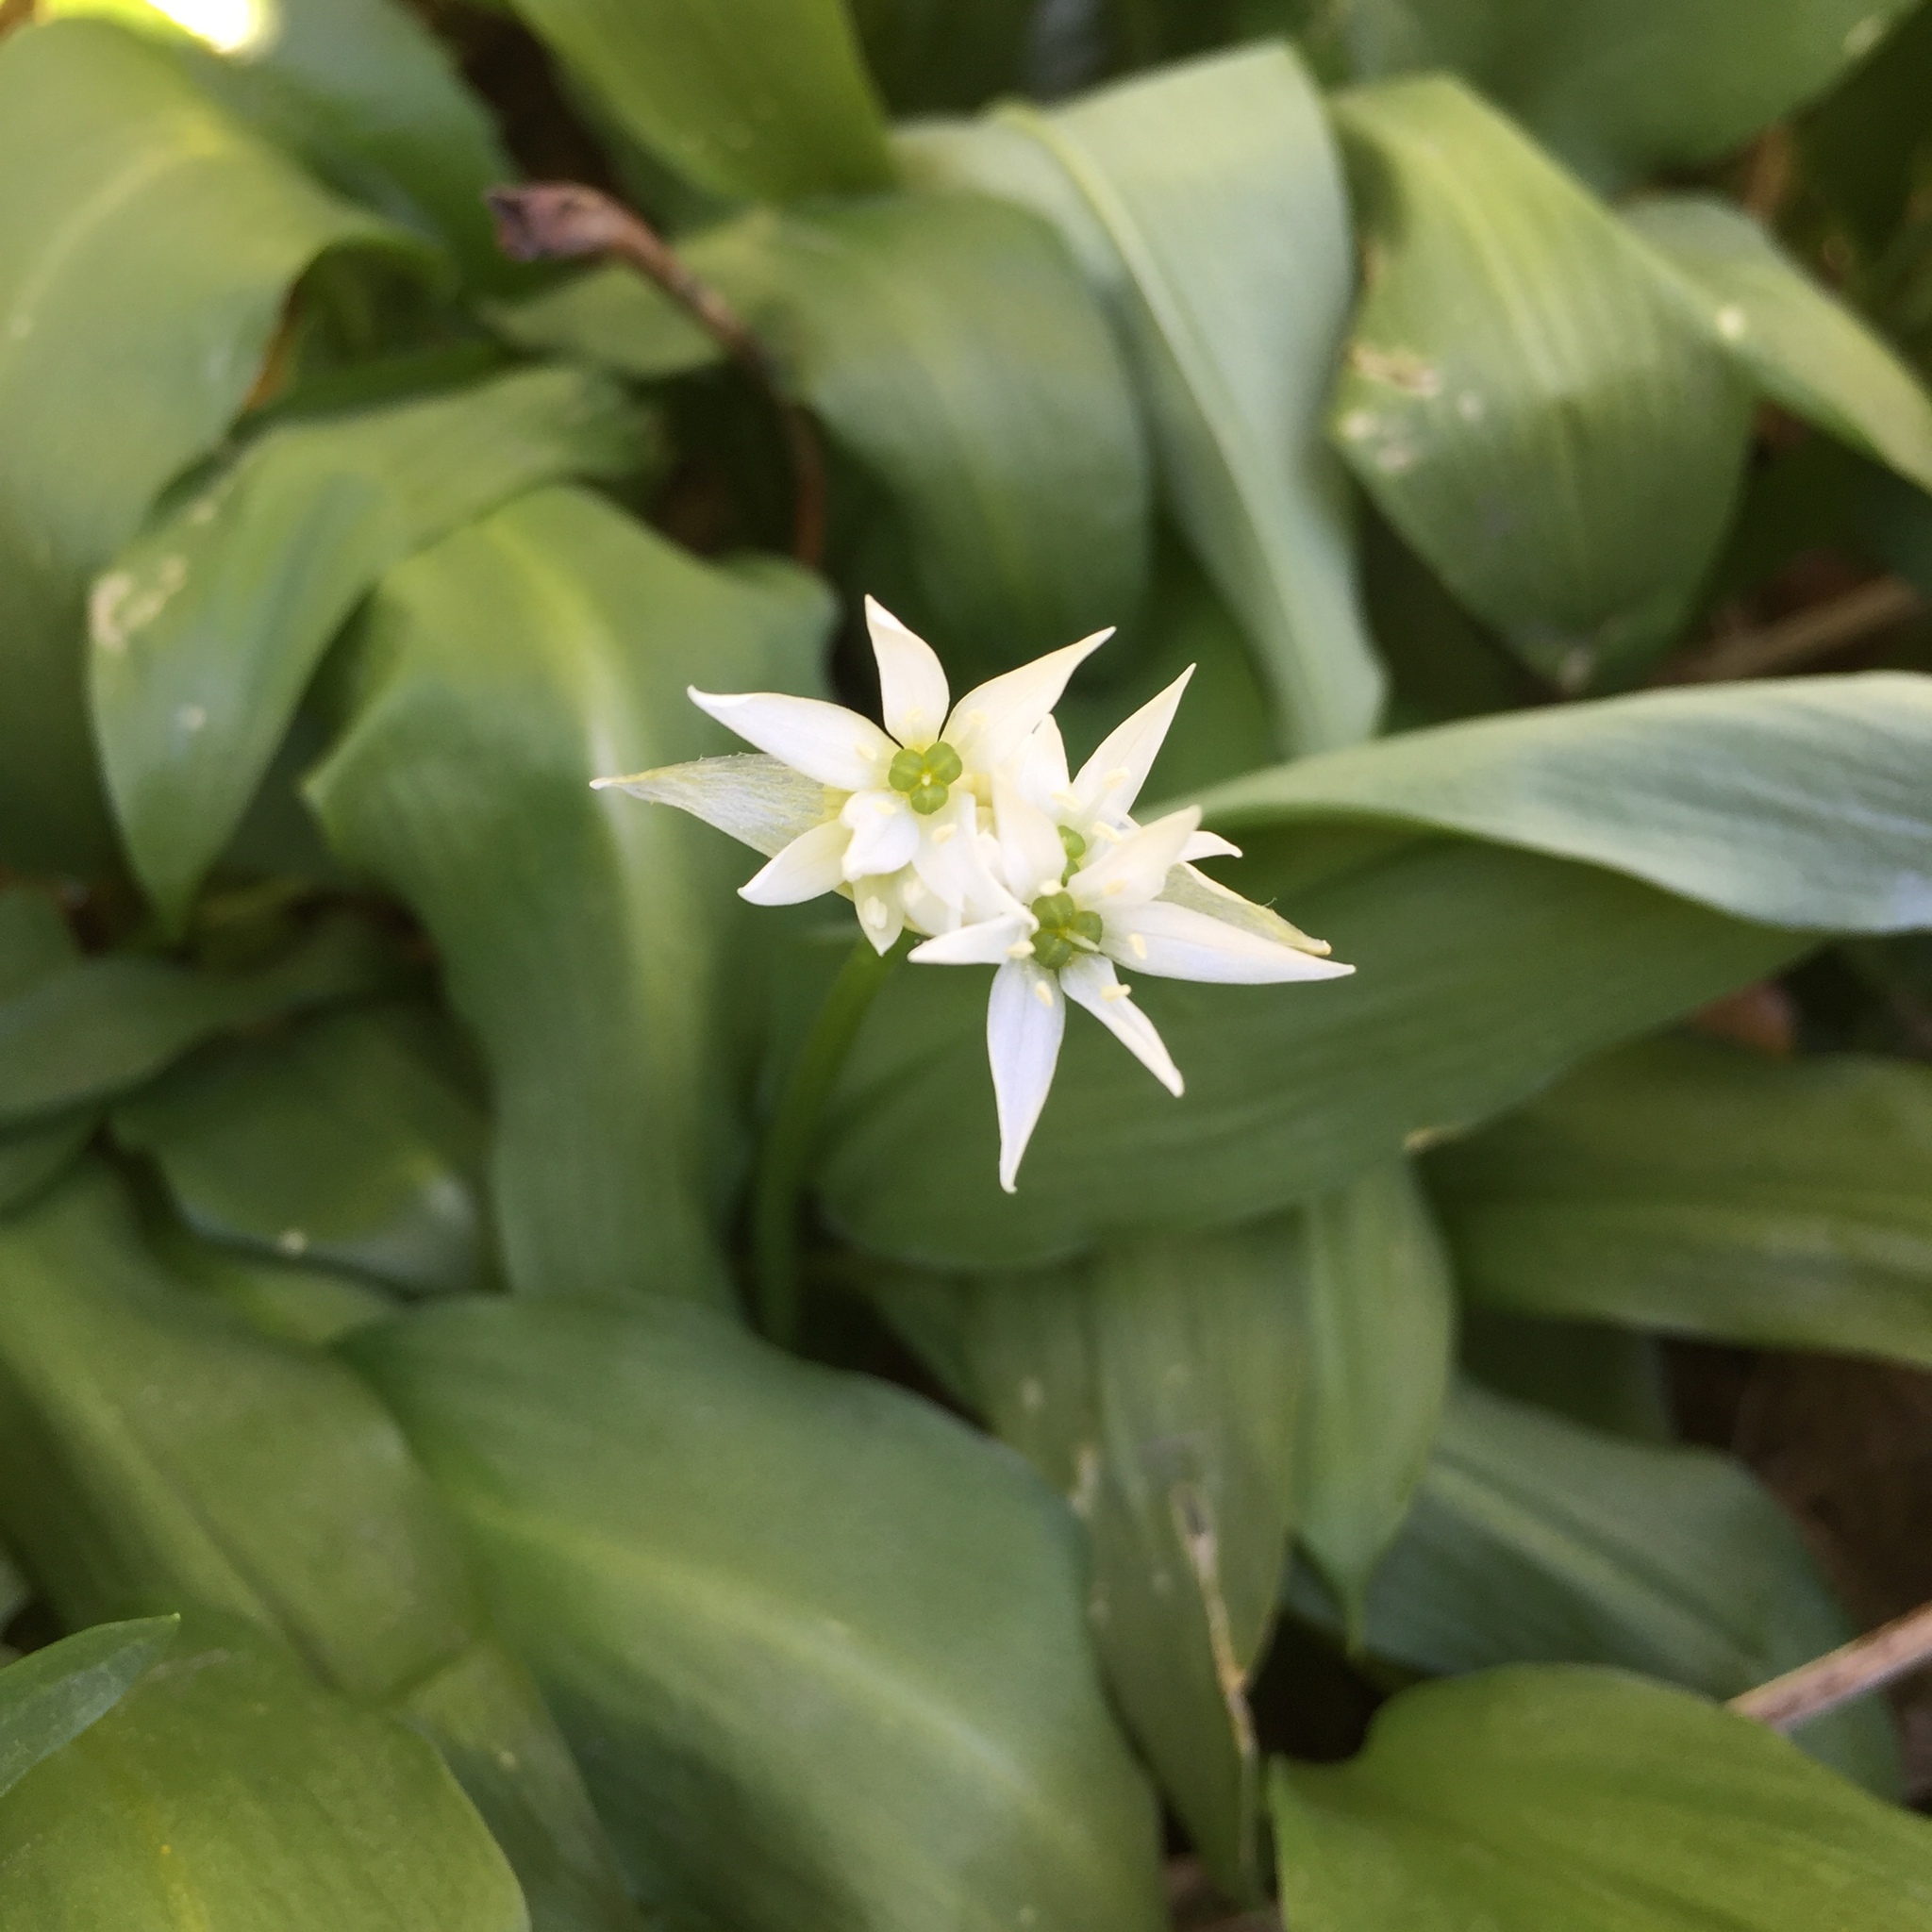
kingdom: Plantae
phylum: Tracheophyta
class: Liliopsida
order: Asparagales
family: Amaryllidaceae
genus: Allium
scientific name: Allium ursinum
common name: Ramsons
